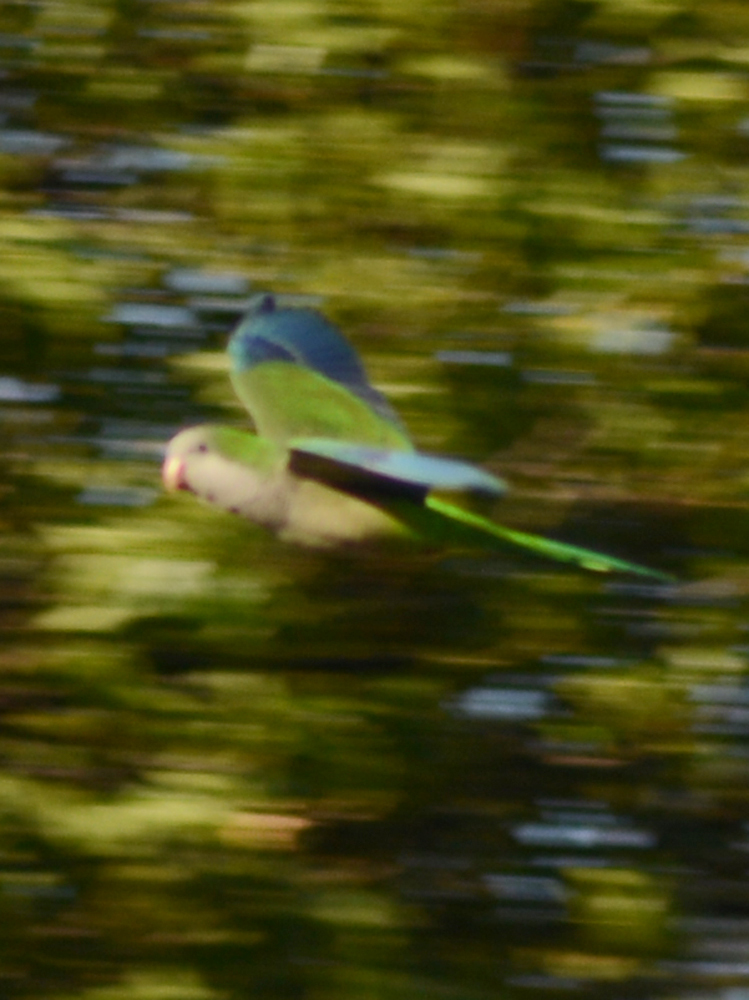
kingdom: Animalia
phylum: Chordata
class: Aves
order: Psittaciformes
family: Psittacidae
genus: Myiopsitta
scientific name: Myiopsitta monachus
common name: Monk parakeet
